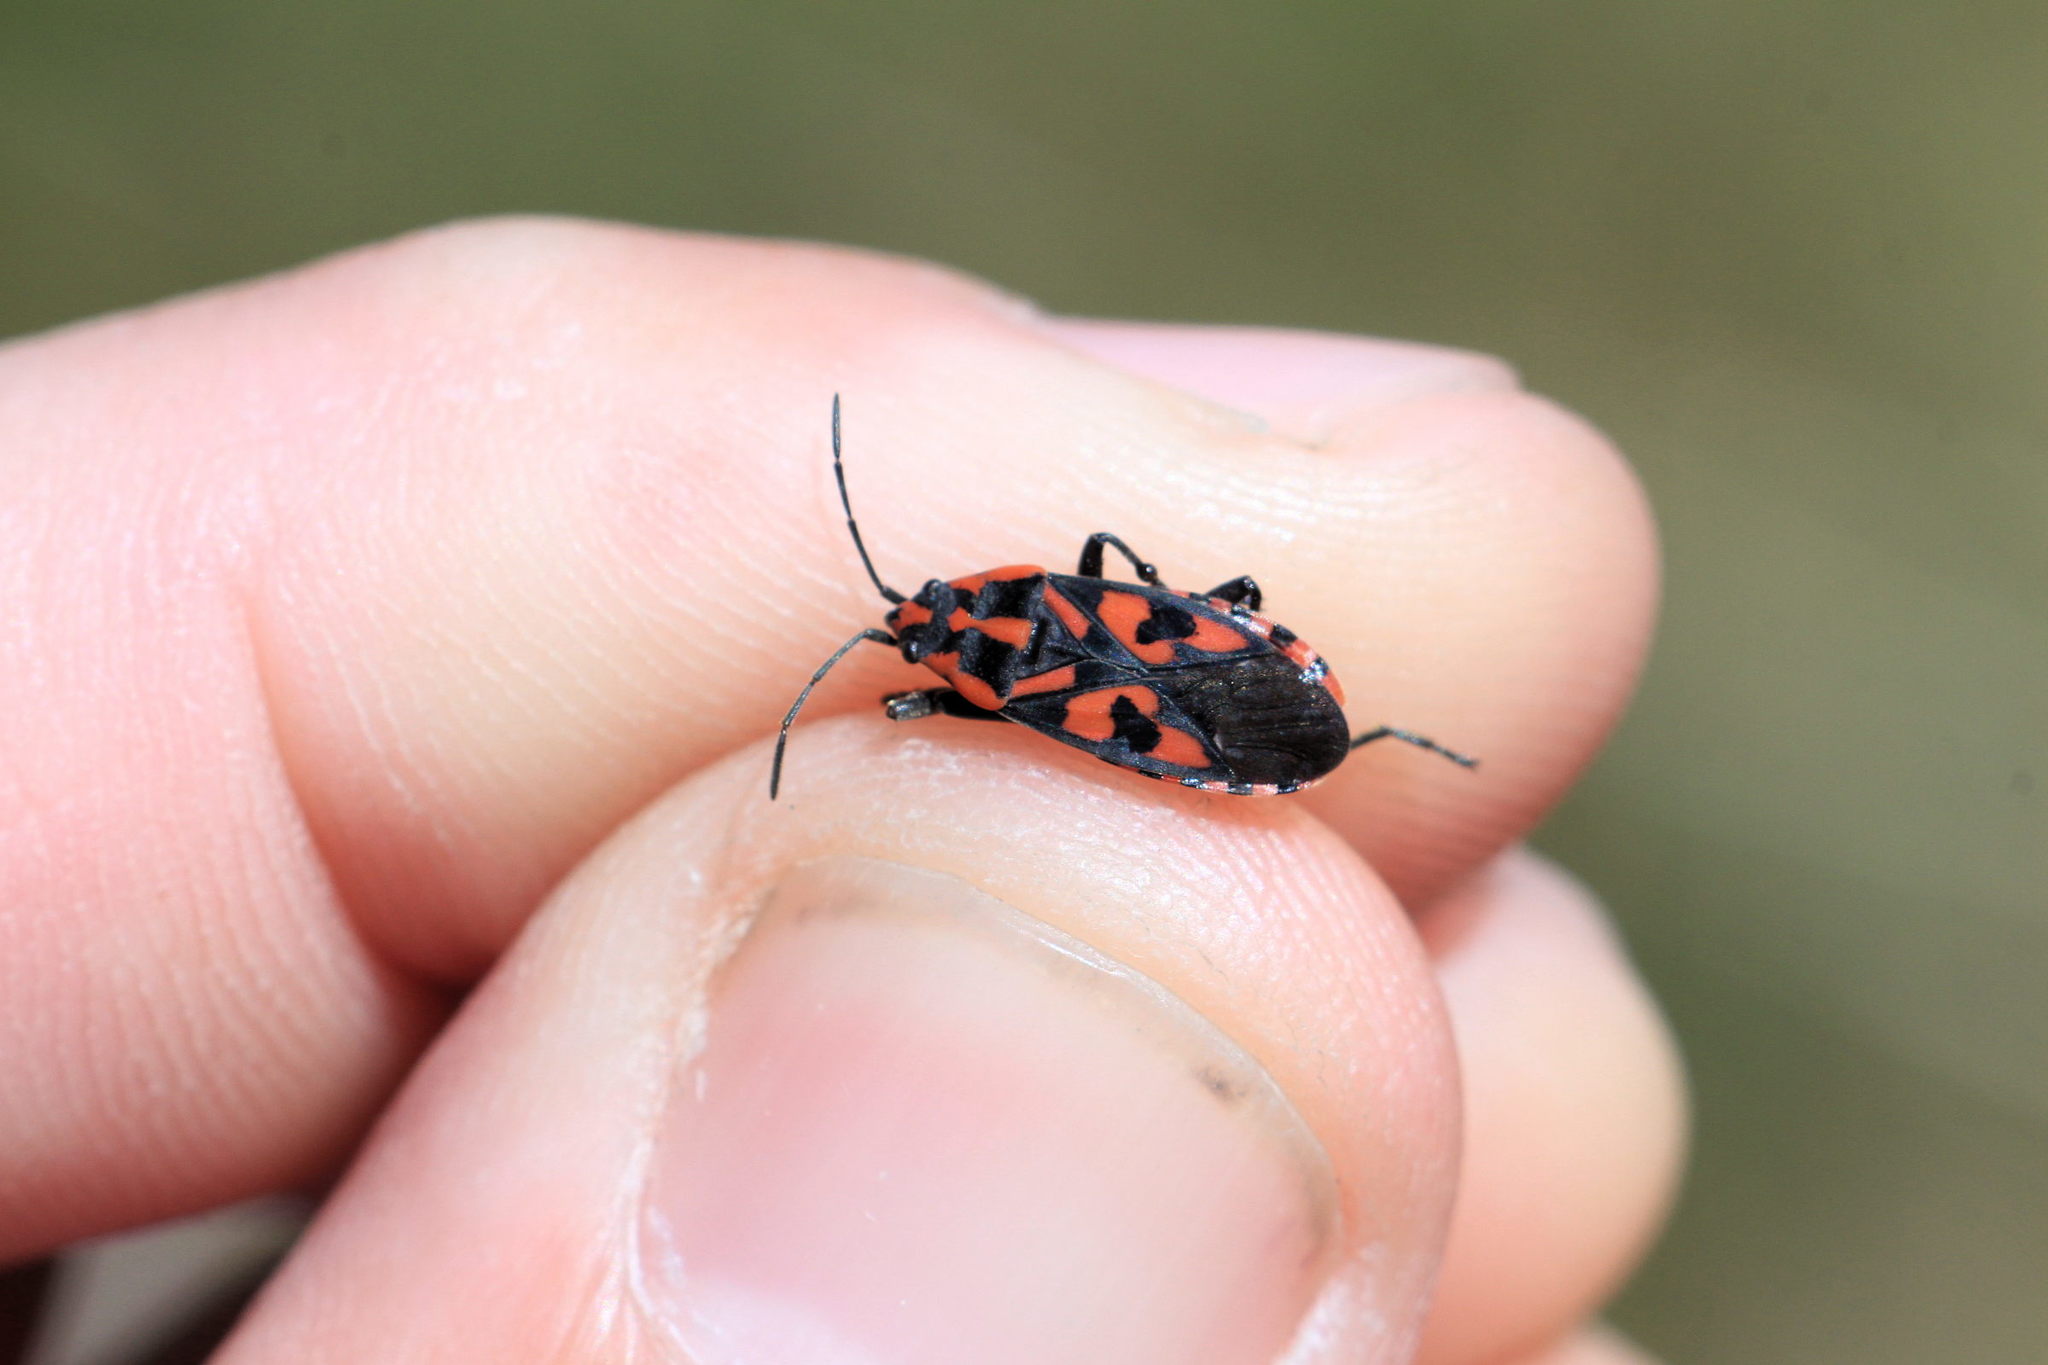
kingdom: Animalia
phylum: Arthropoda
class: Insecta
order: Hemiptera
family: Lygaeidae
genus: Spilostethus
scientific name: Spilostethus saxatilis
